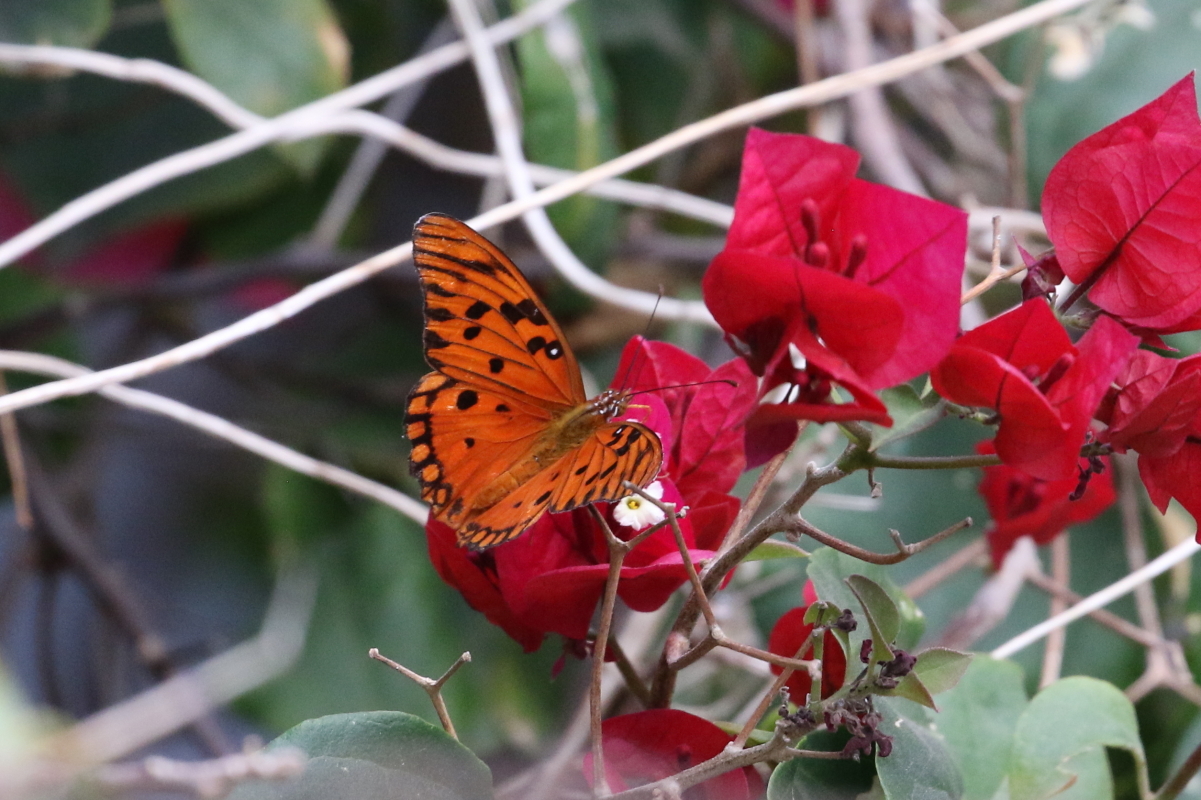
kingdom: Animalia
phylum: Arthropoda
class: Insecta
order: Lepidoptera
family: Nymphalidae
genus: Dione
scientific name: Dione vanillae
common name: Gulf fritillary
